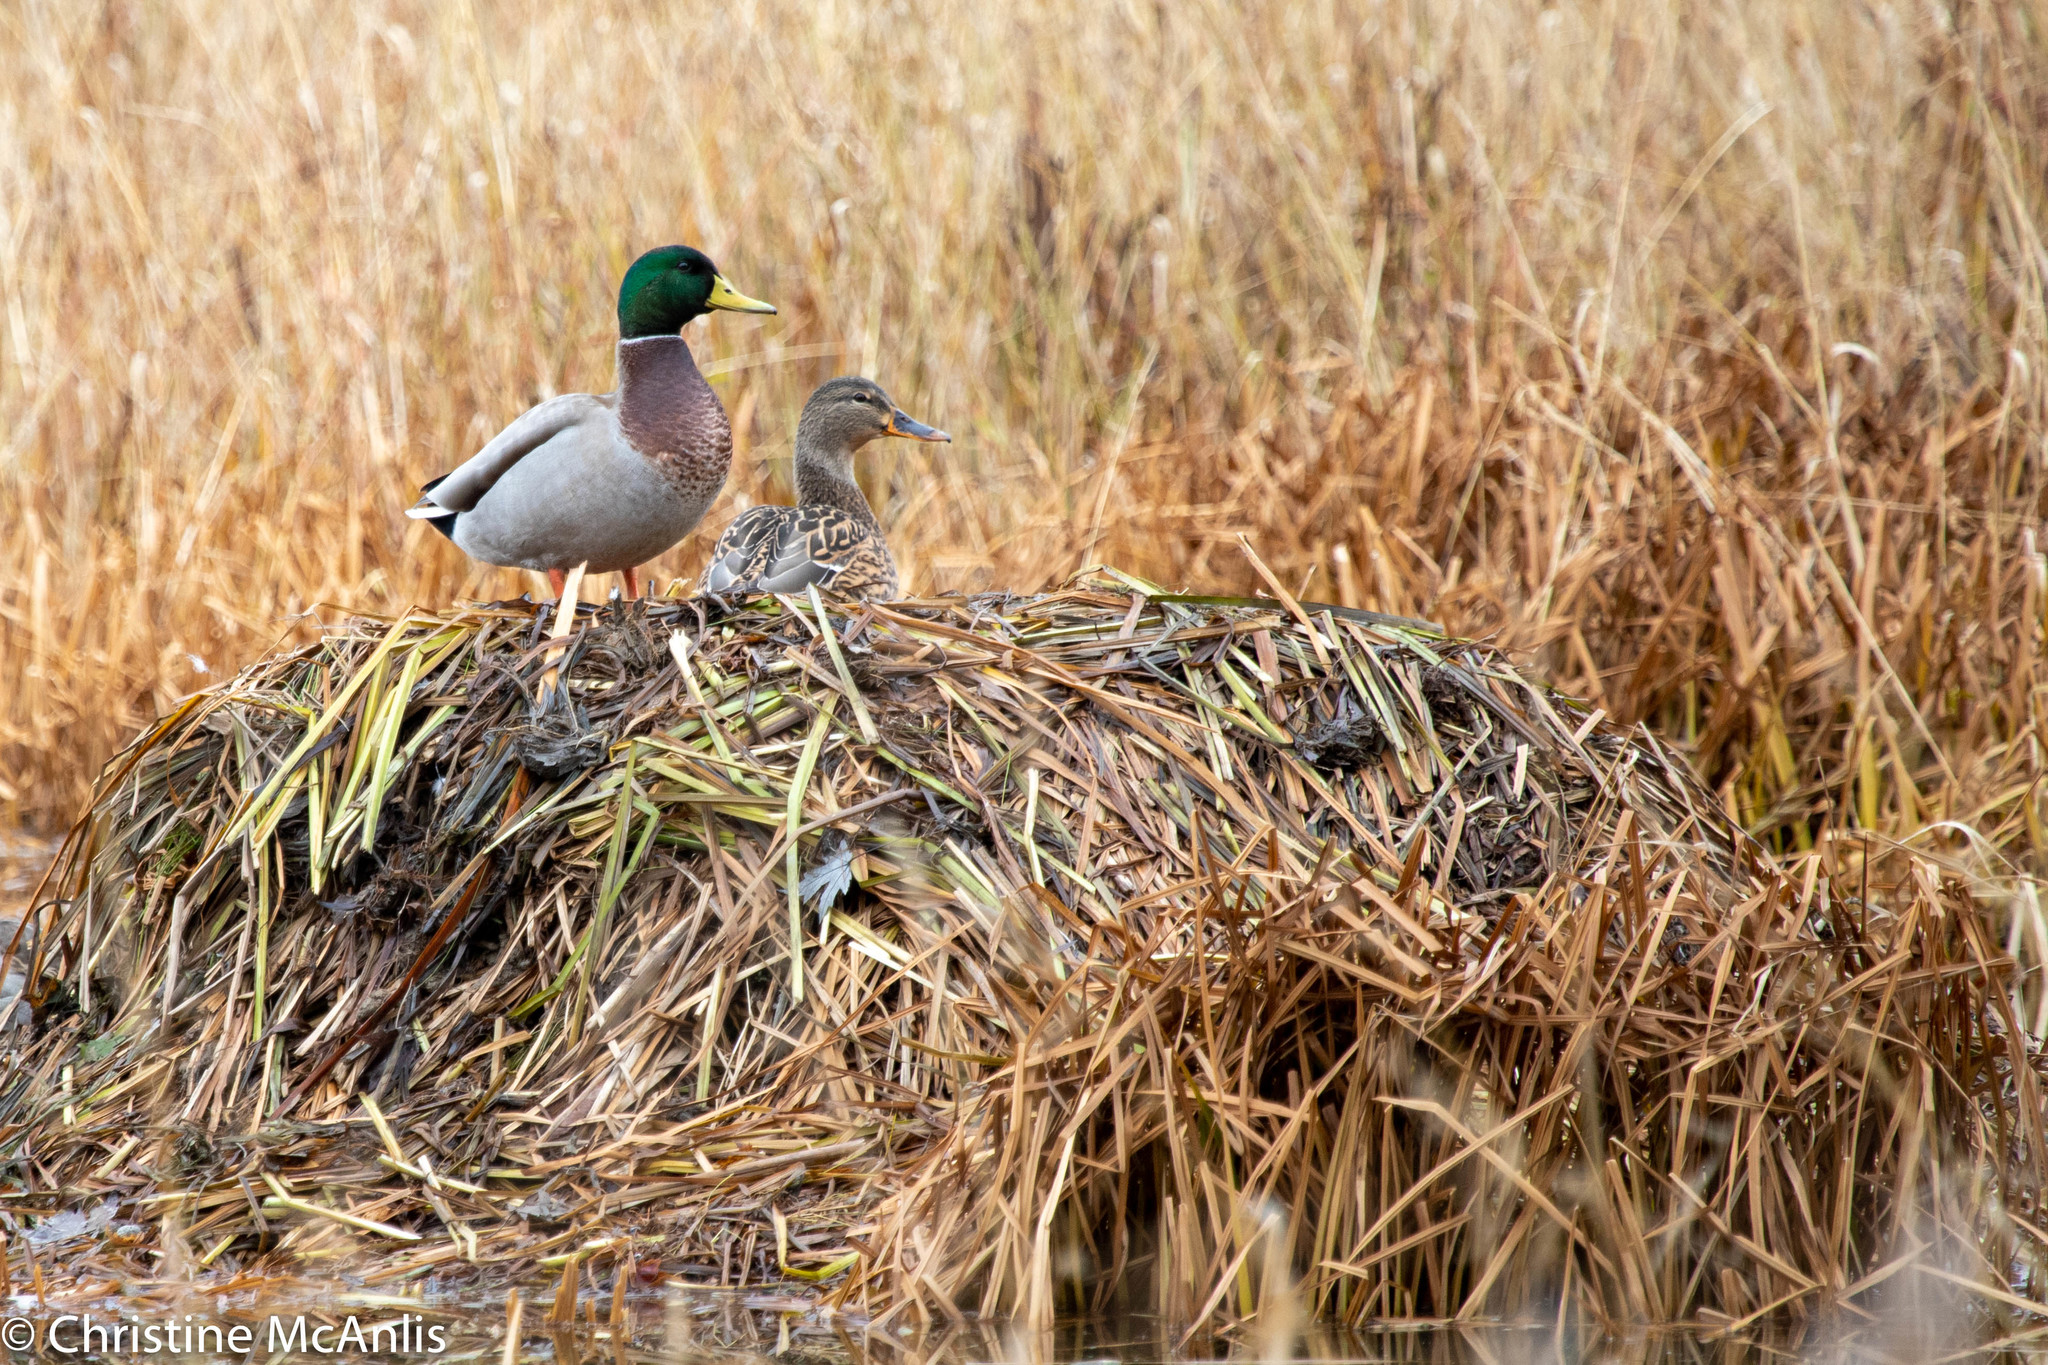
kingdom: Animalia
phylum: Chordata
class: Aves
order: Anseriformes
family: Anatidae
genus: Anas
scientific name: Anas platyrhynchos
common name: Mallard
